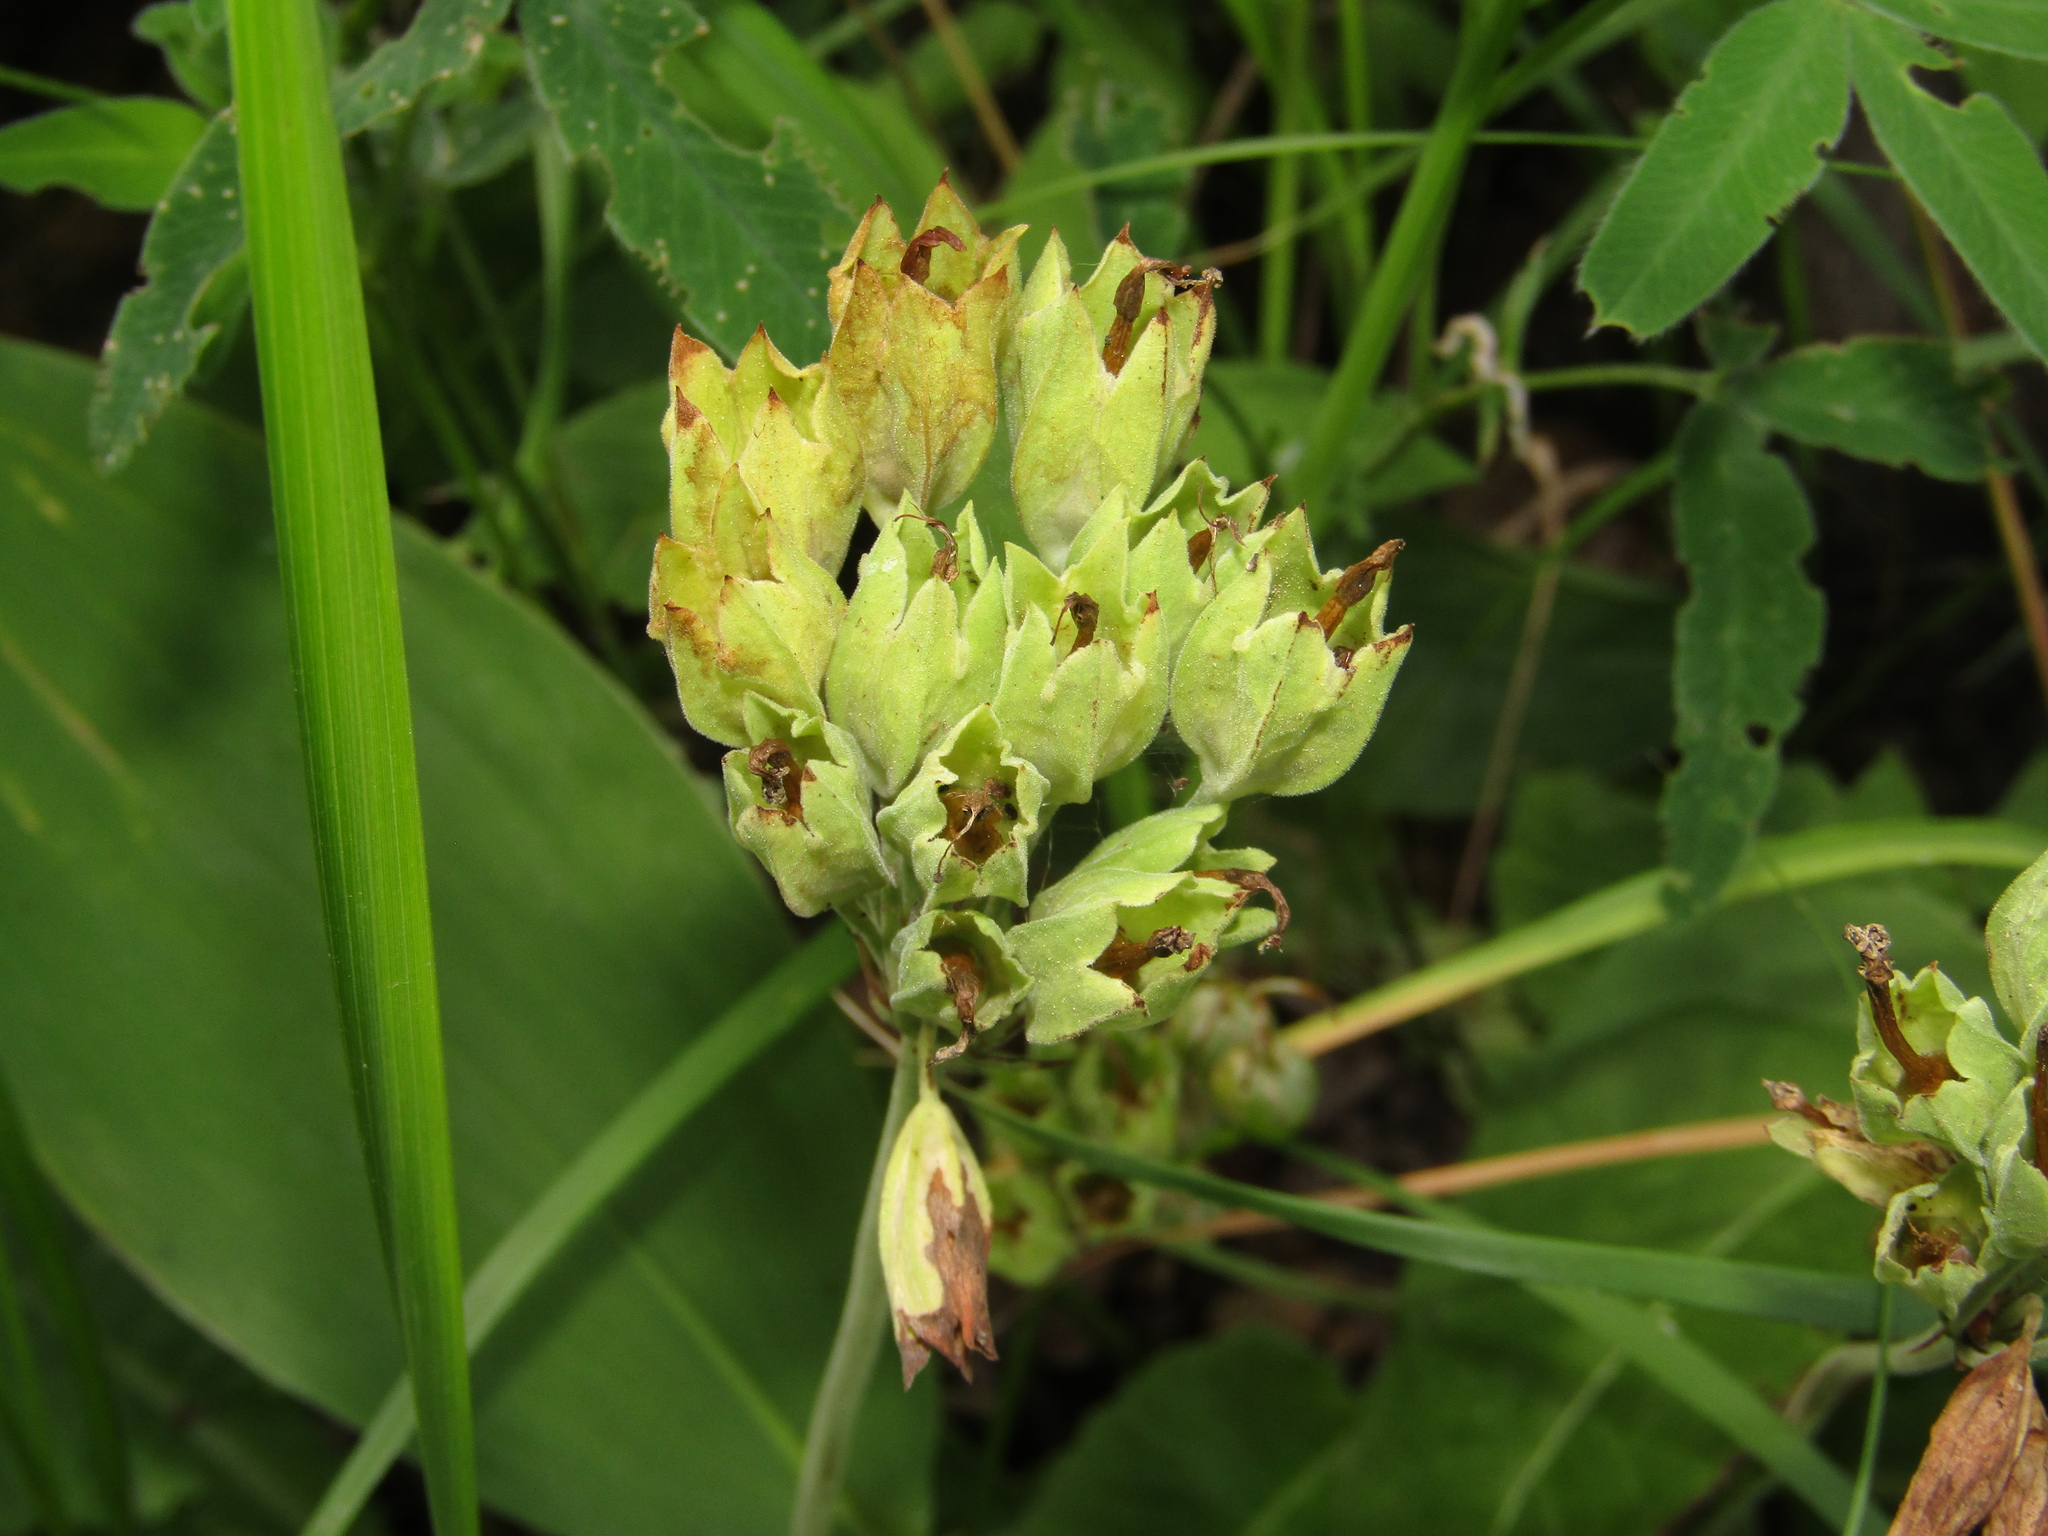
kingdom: Plantae
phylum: Tracheophyta
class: Magnoliopsida
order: Ericales
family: Primulaceae
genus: Primula
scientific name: Primula veris
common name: Cowslip
